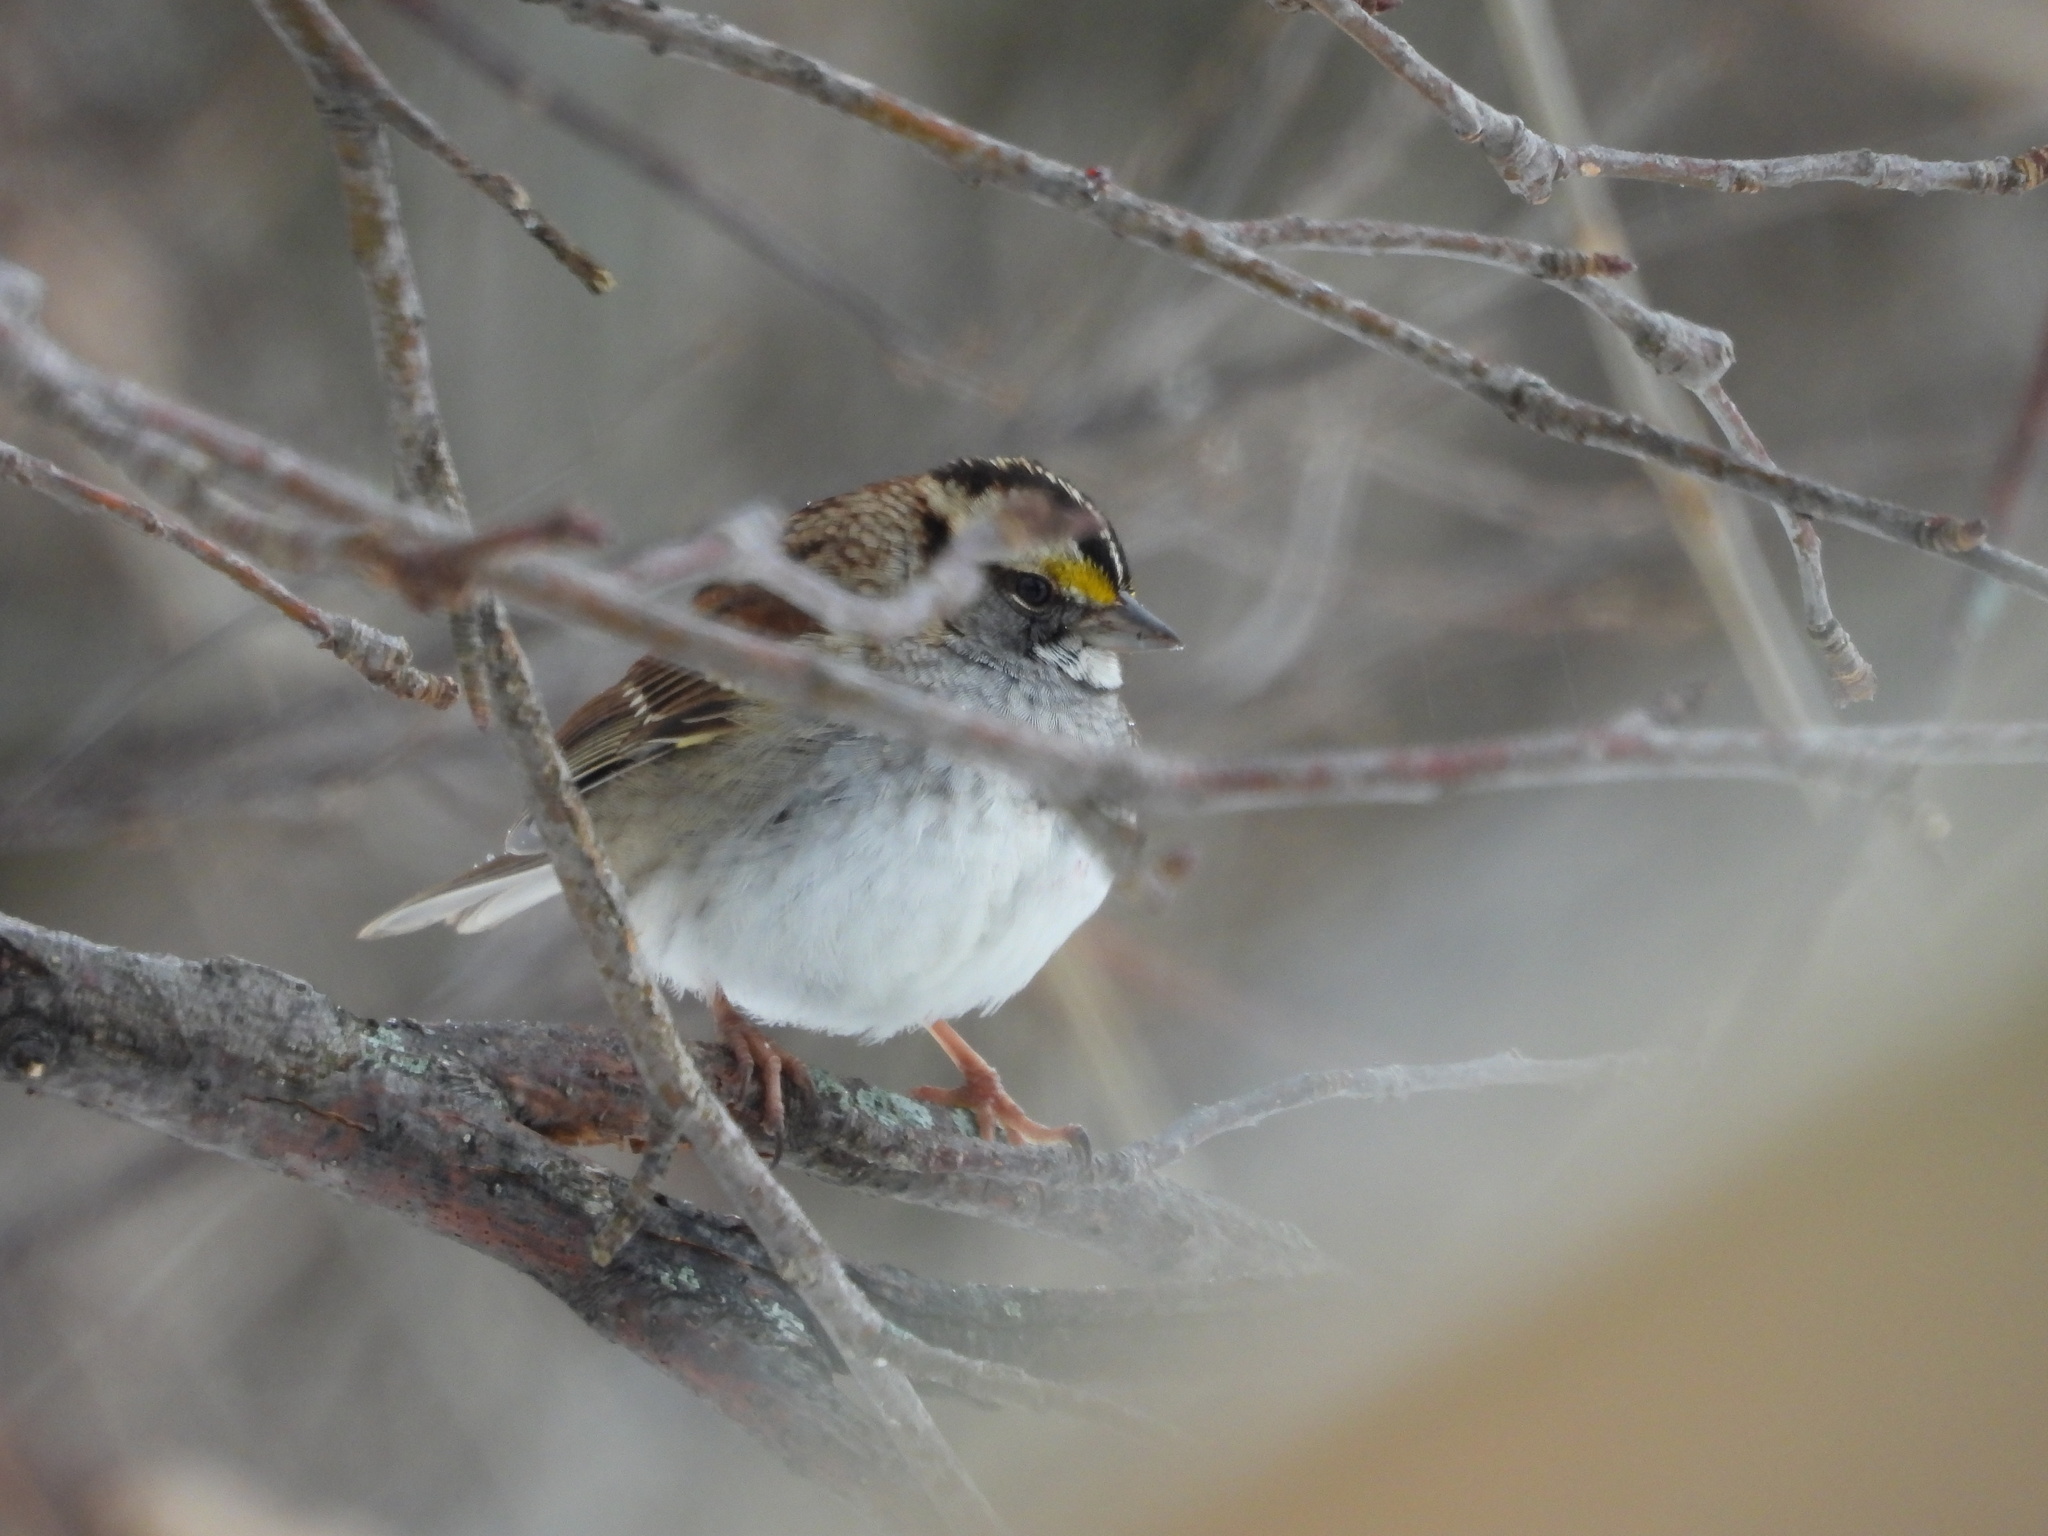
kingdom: Animalia
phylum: Chordata
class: Aves
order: Passeriformes
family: Passerellidae
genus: Zonotrichia
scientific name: Zonotrichia albicollis
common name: White-throated sparrow
